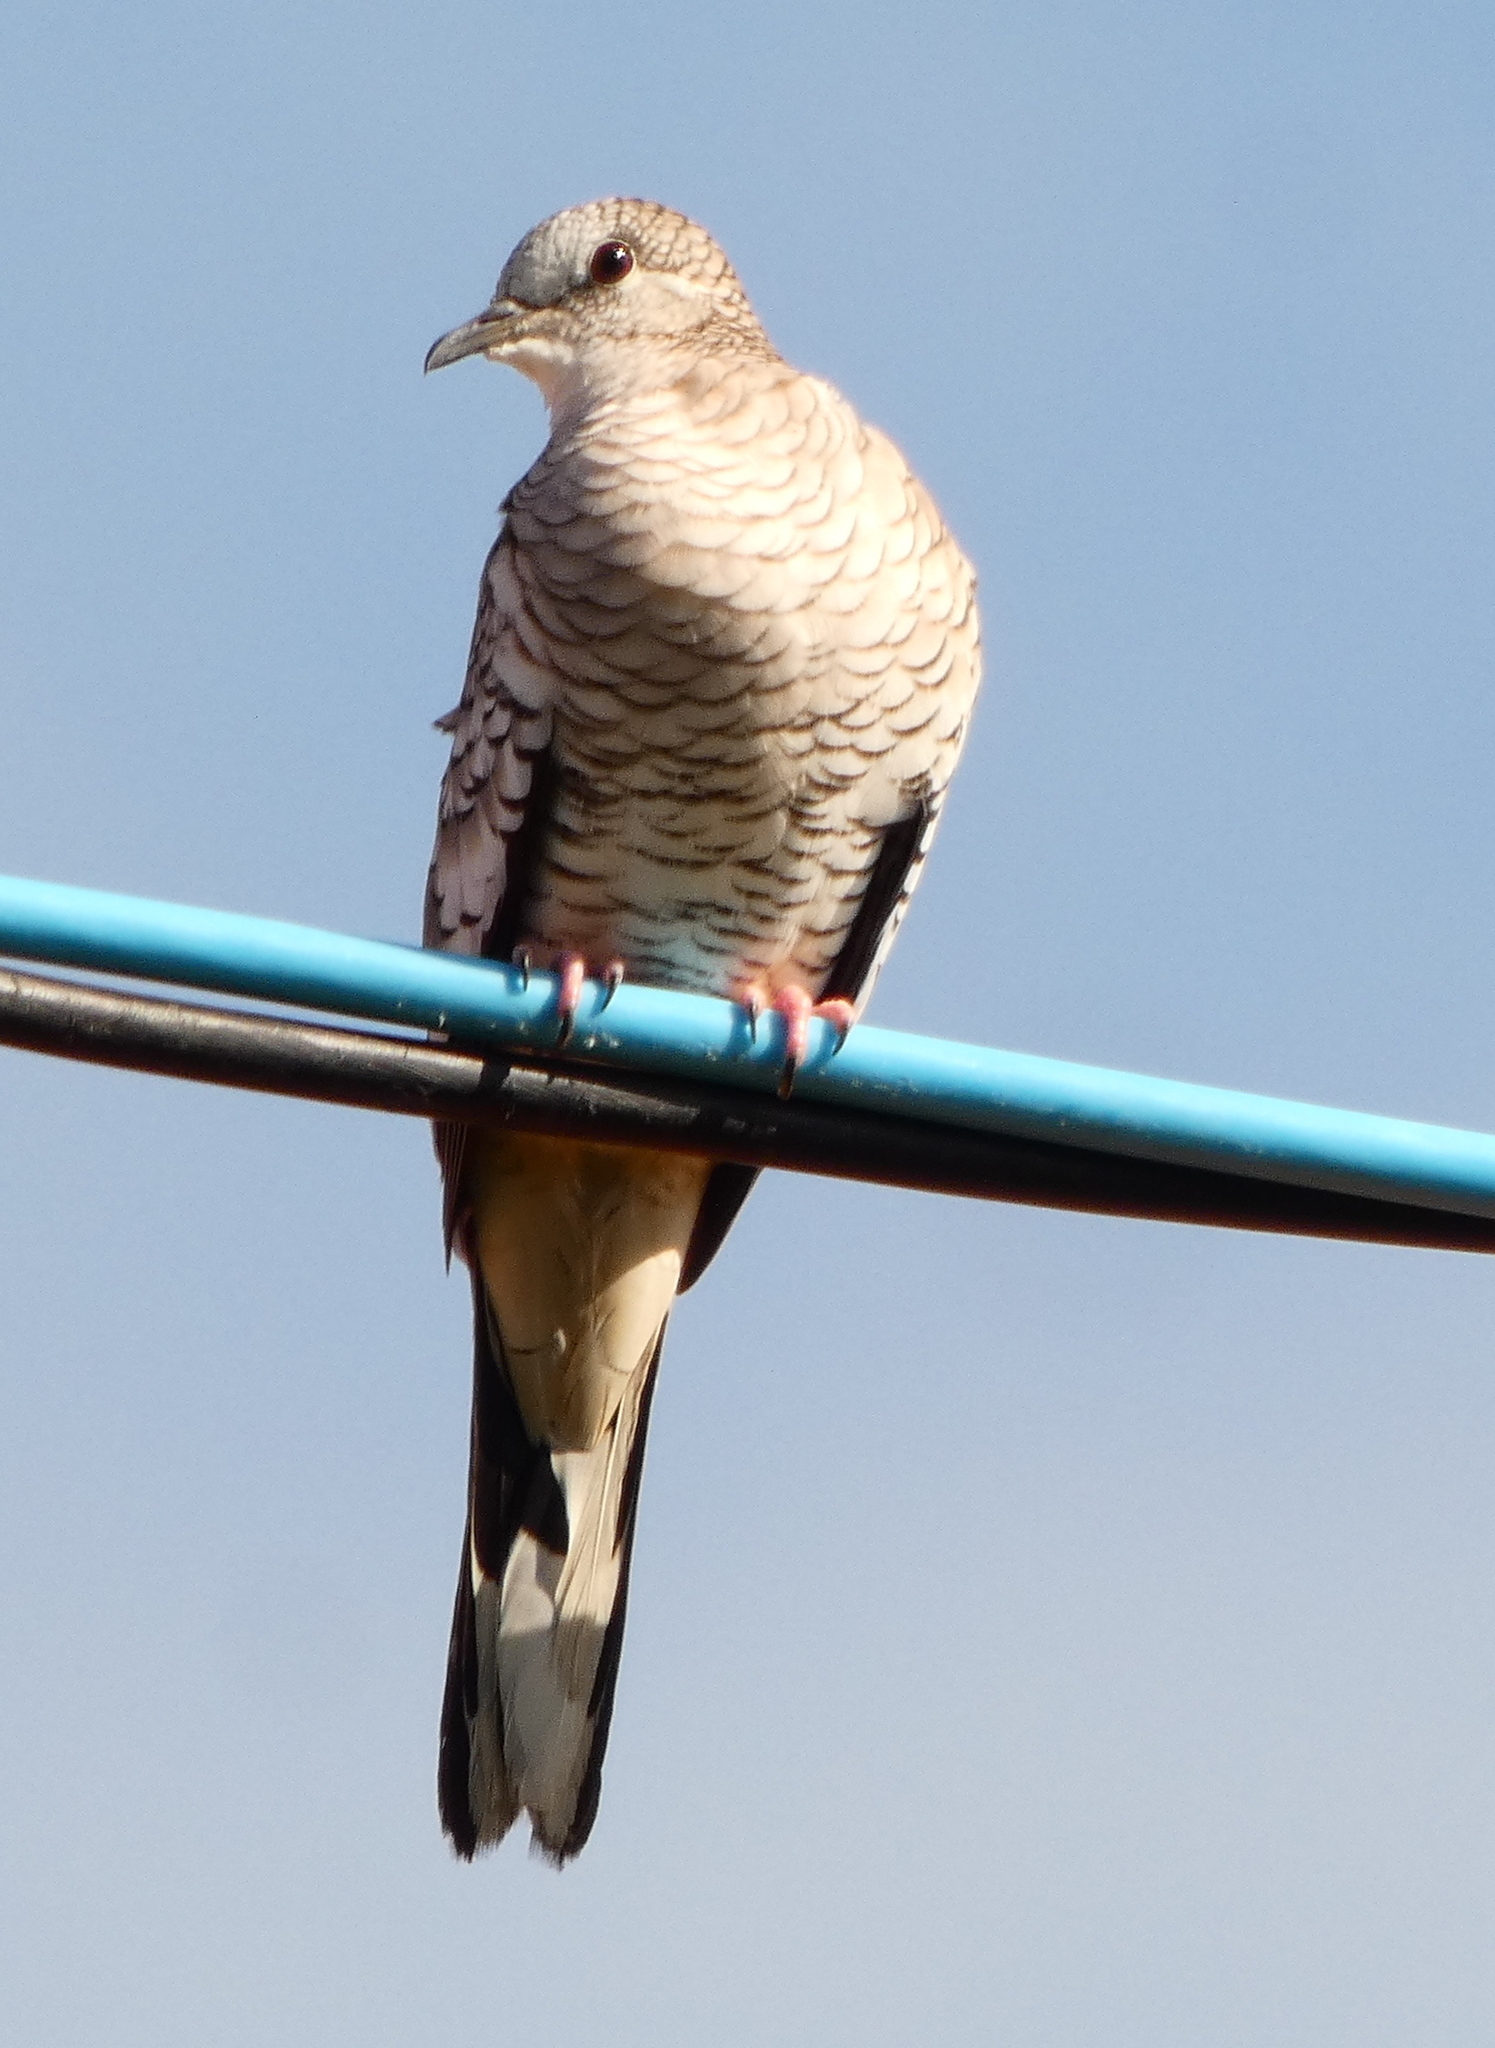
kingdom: Animalia
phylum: Chordata
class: Aves
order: Columbiformes
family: Columbidae
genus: Columbina
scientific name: Columbina squammata
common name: Scaled dove
